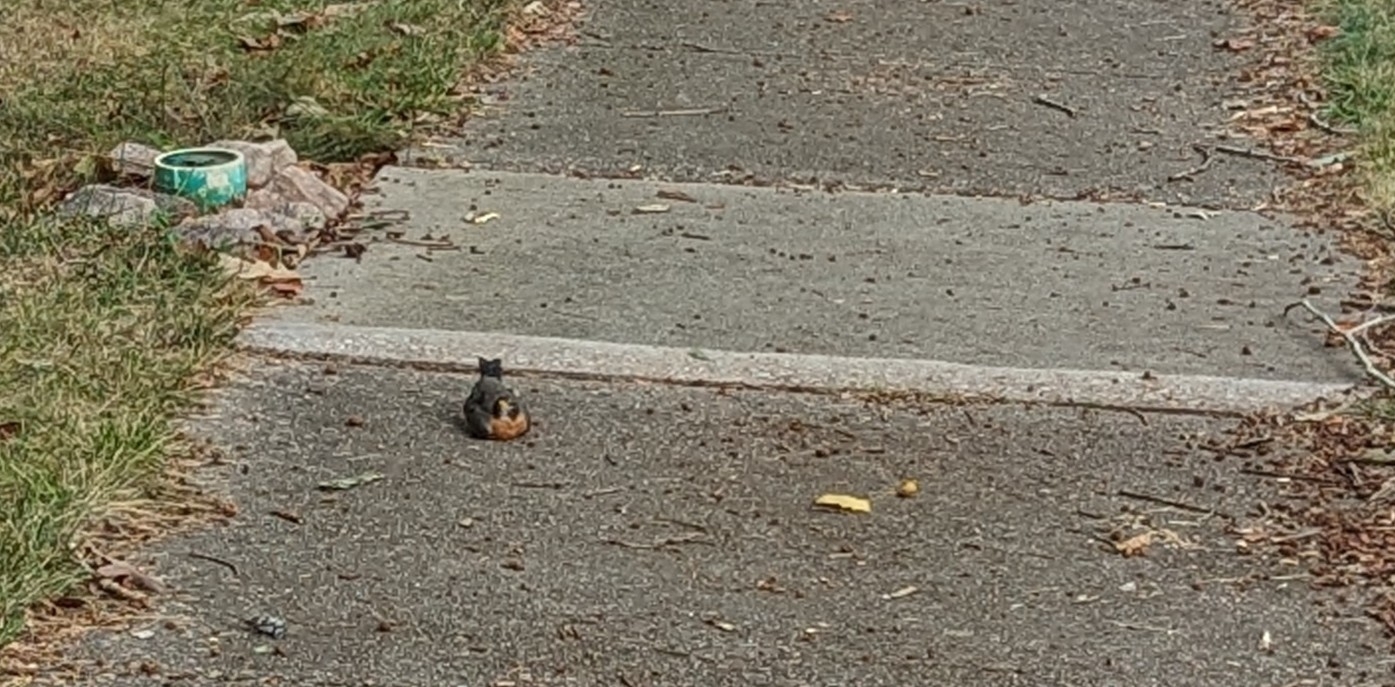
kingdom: Animalia
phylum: Chordata
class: Aves
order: Passeriformes
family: Turdidae
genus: Turdus
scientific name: Turdus migratorius
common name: American robin
